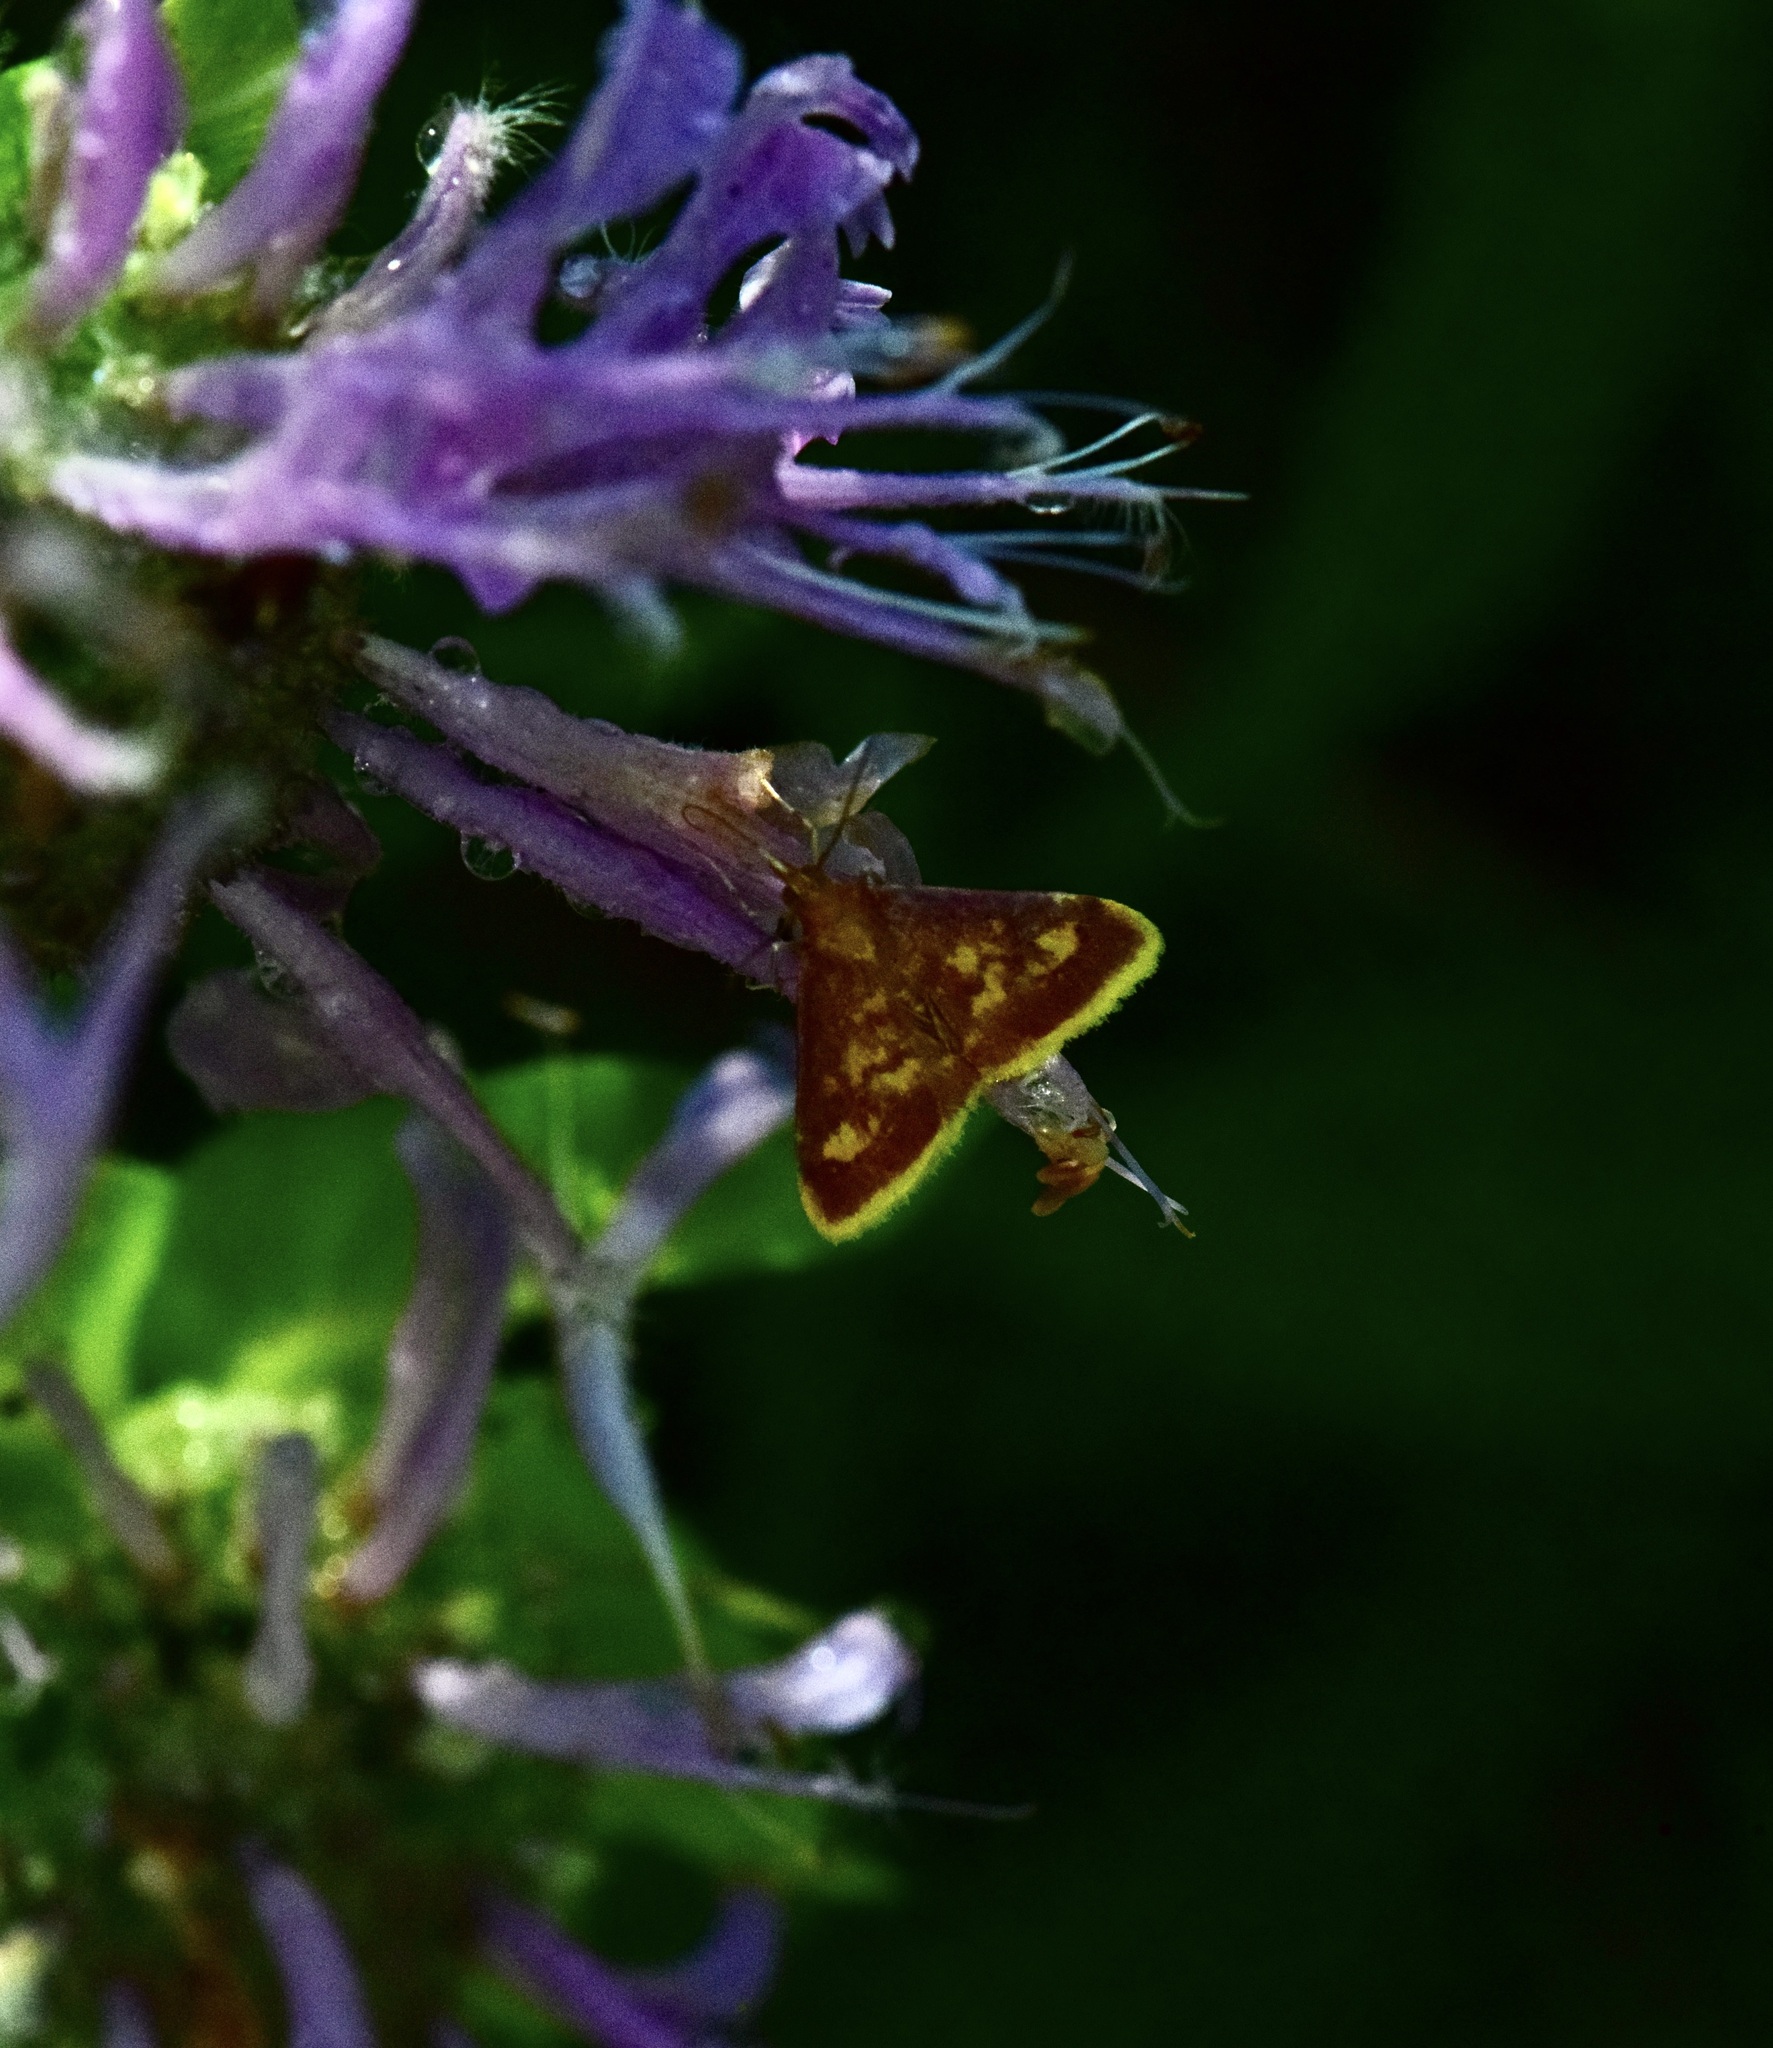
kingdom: Animalia
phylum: Arthropoda
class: Insecta
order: Lepidoptera
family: Crambidae
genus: Pyrausta
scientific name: Pyrausta acrionalis
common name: Mint-loving pyrausta moth
